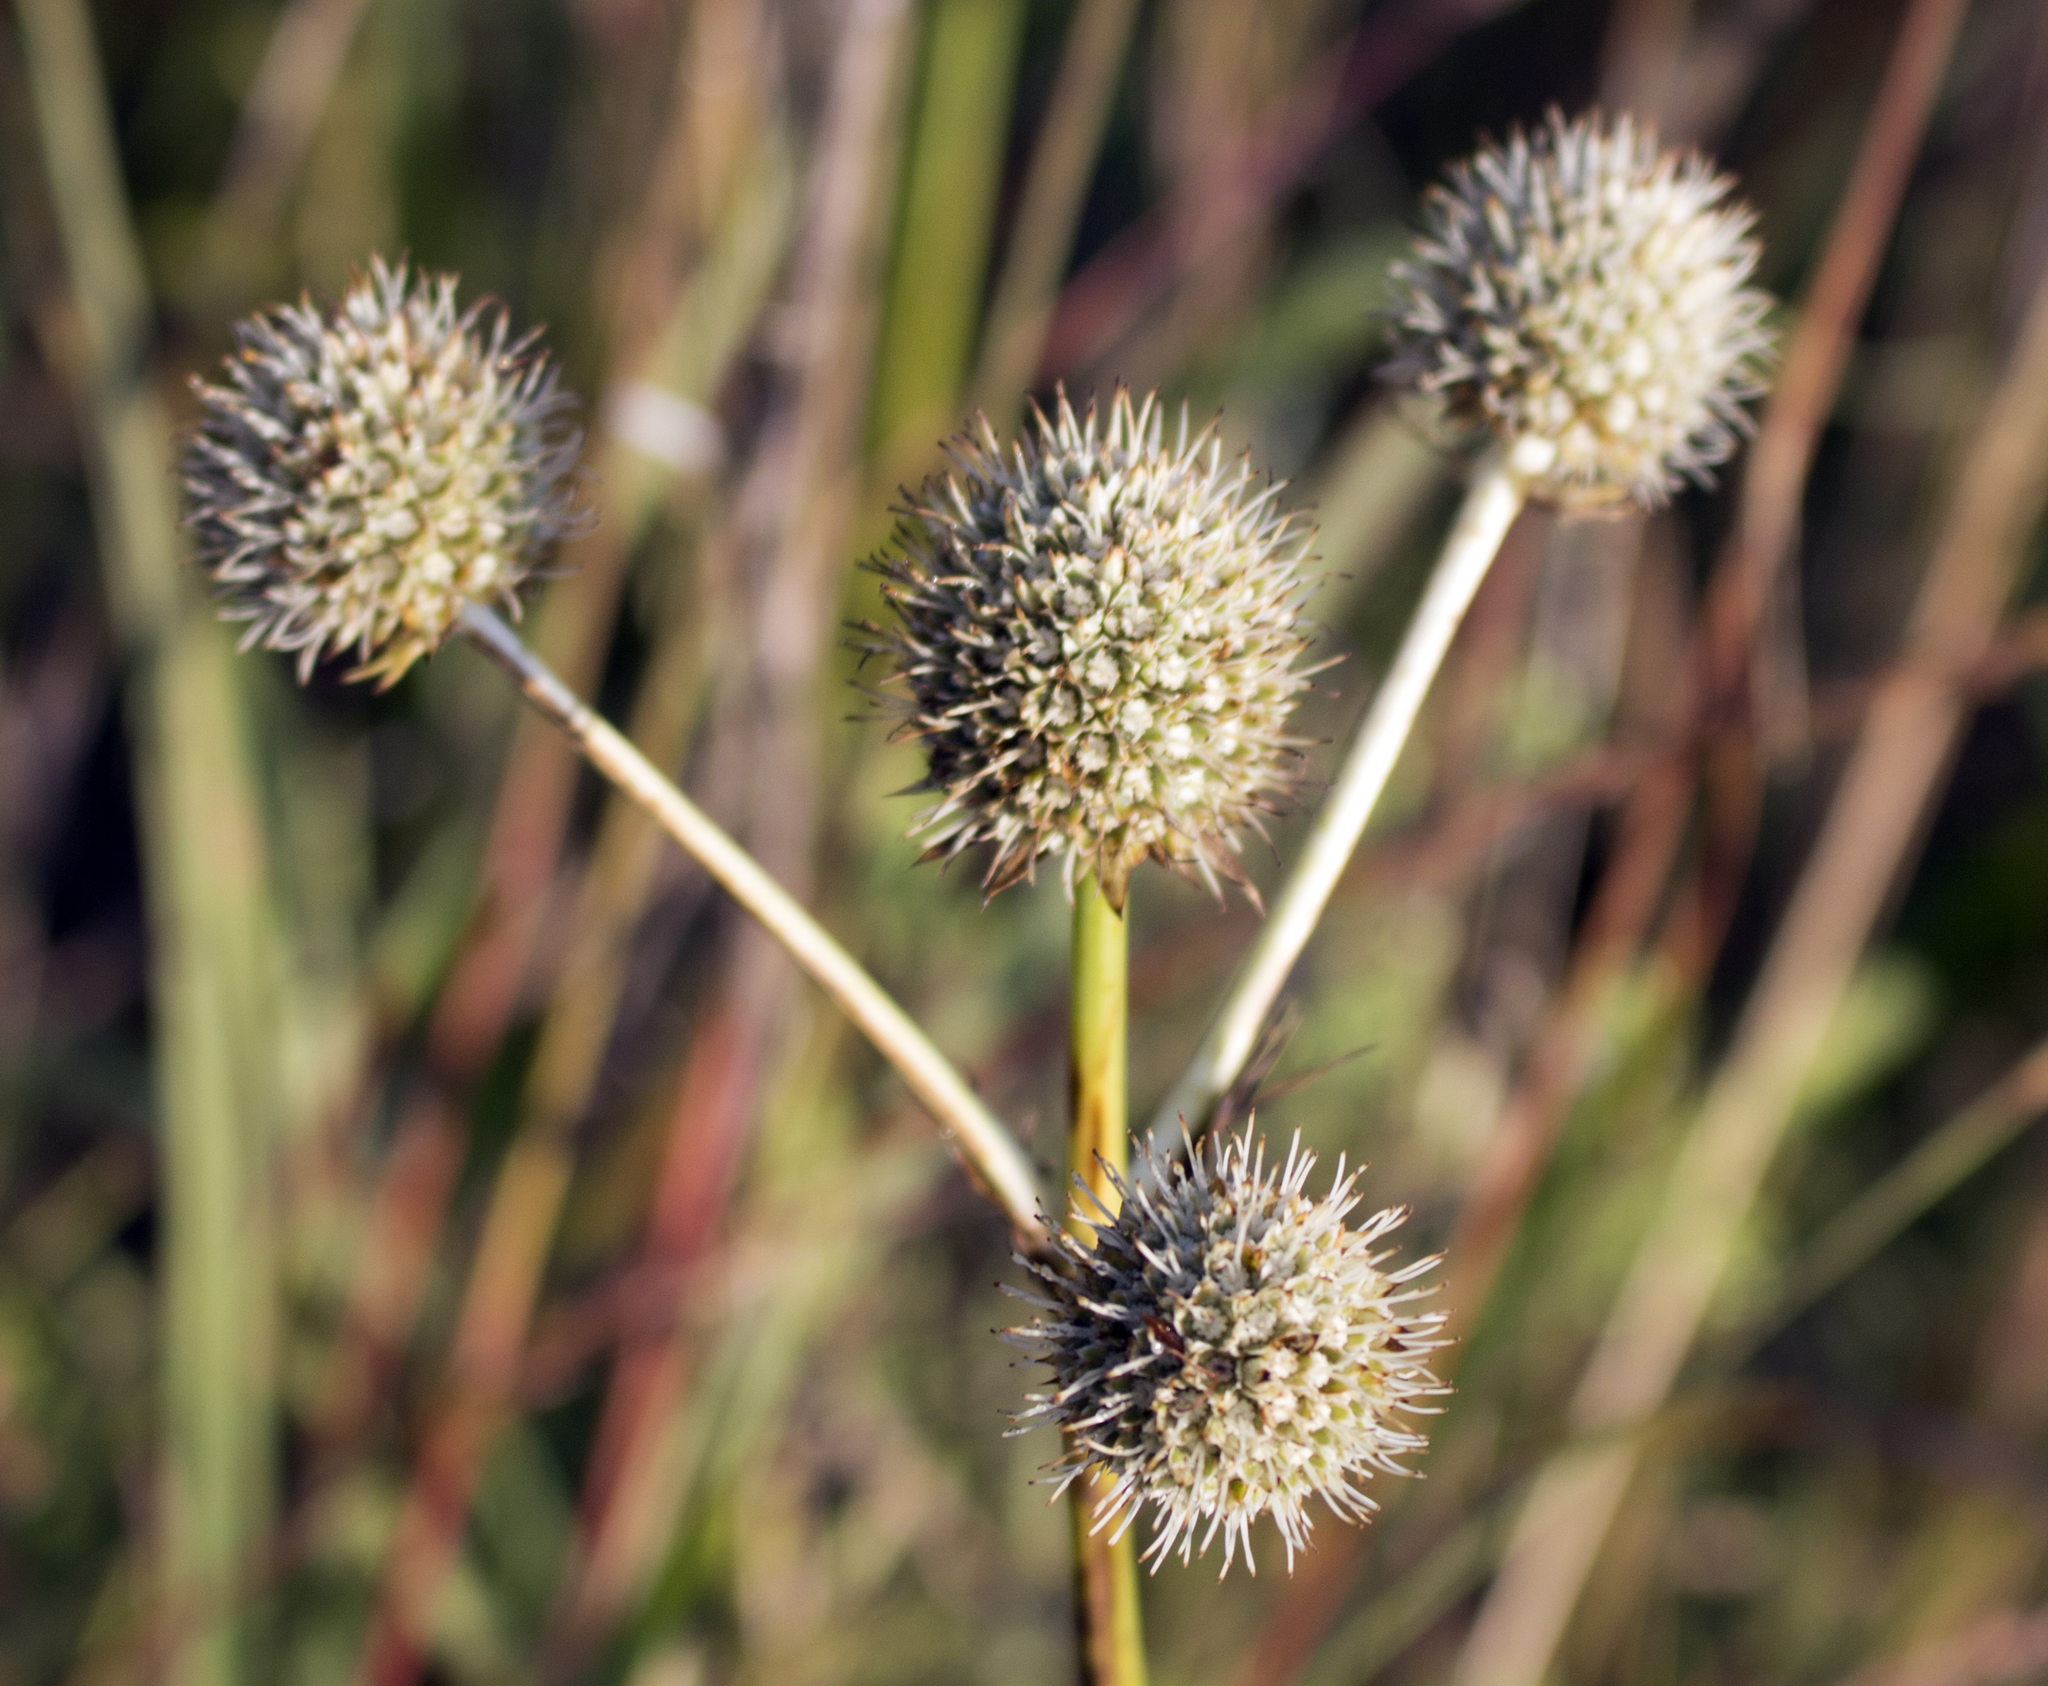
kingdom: Plantae
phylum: Tracheophyta
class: Magnoliopsida
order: Apiales
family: Apiaceae
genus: Eryngium
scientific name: Eryngium yuccifolium
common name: Button eryngo
